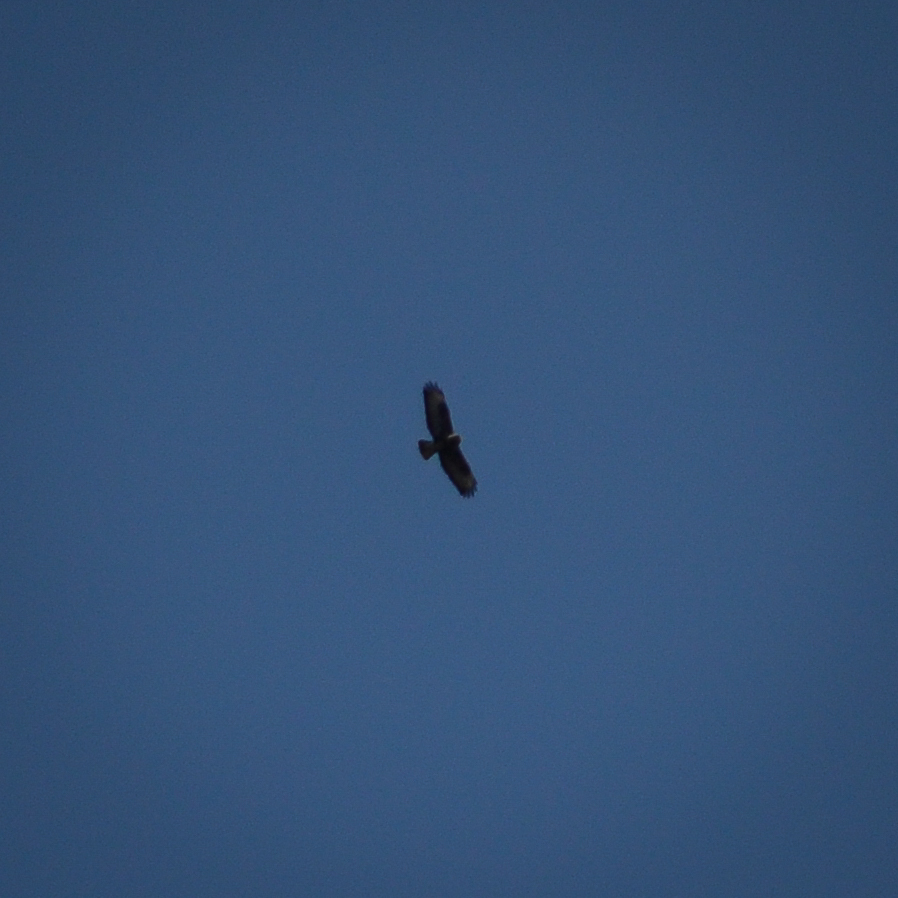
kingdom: Animalia
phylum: Chordata
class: Aves
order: Accipitriformes
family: Accipitridae
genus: Buteo
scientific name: Buteo buteo
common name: Common buzzard
